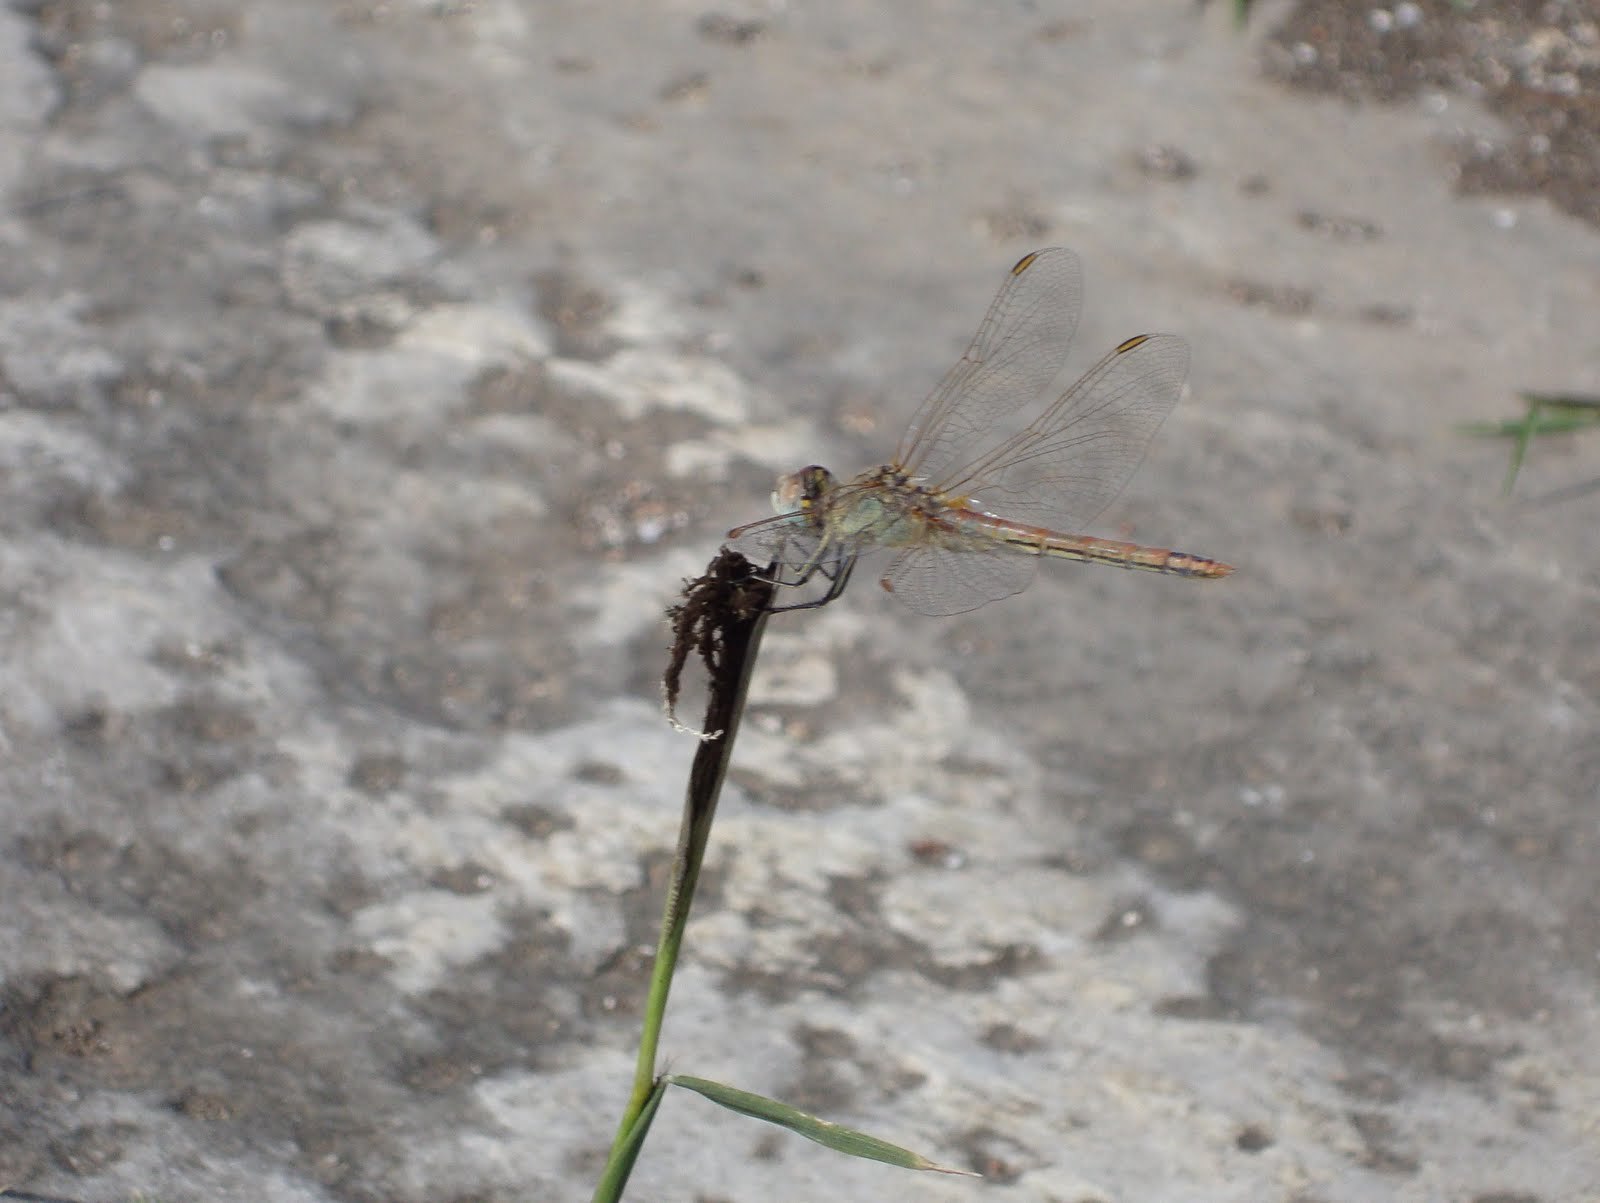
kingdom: Animalia
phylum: Arthropoda
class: Insecta
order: Odonata
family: Libellulidae
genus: Sympetrum
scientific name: Sympetrum fonscolombii
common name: Red-veined darter
